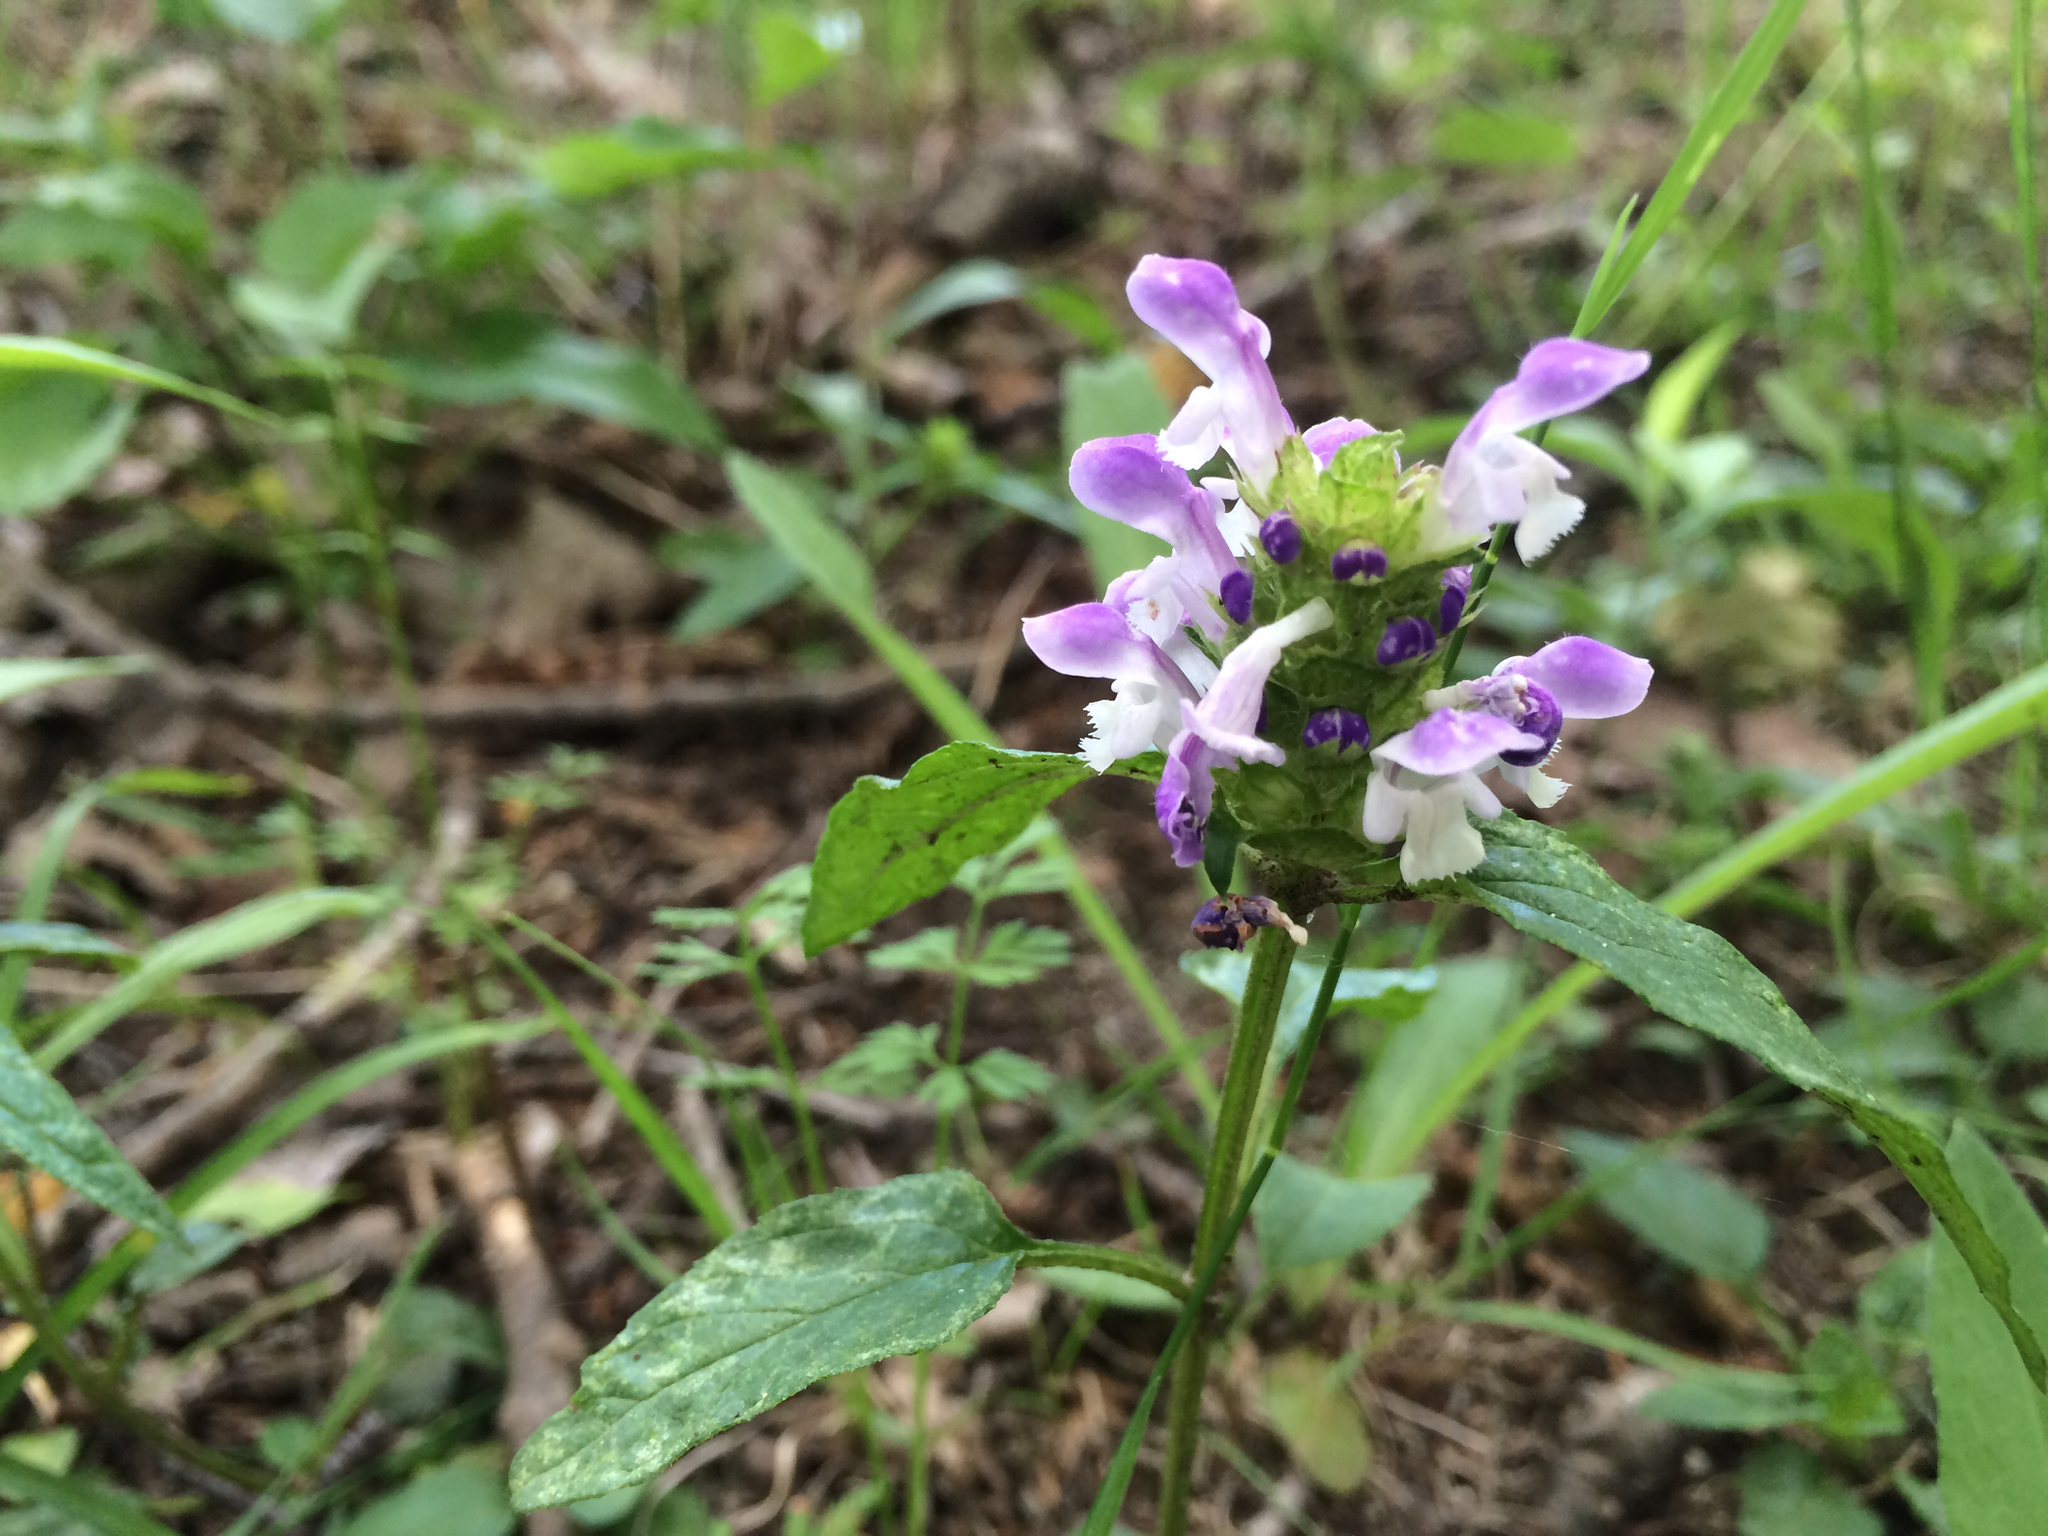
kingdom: Plantae
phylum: Tracheophyta
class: Magnoliopsida
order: Lamiales
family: Lamiaceae
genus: Prunella
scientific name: Prunella vulgaris
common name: Heal-all
